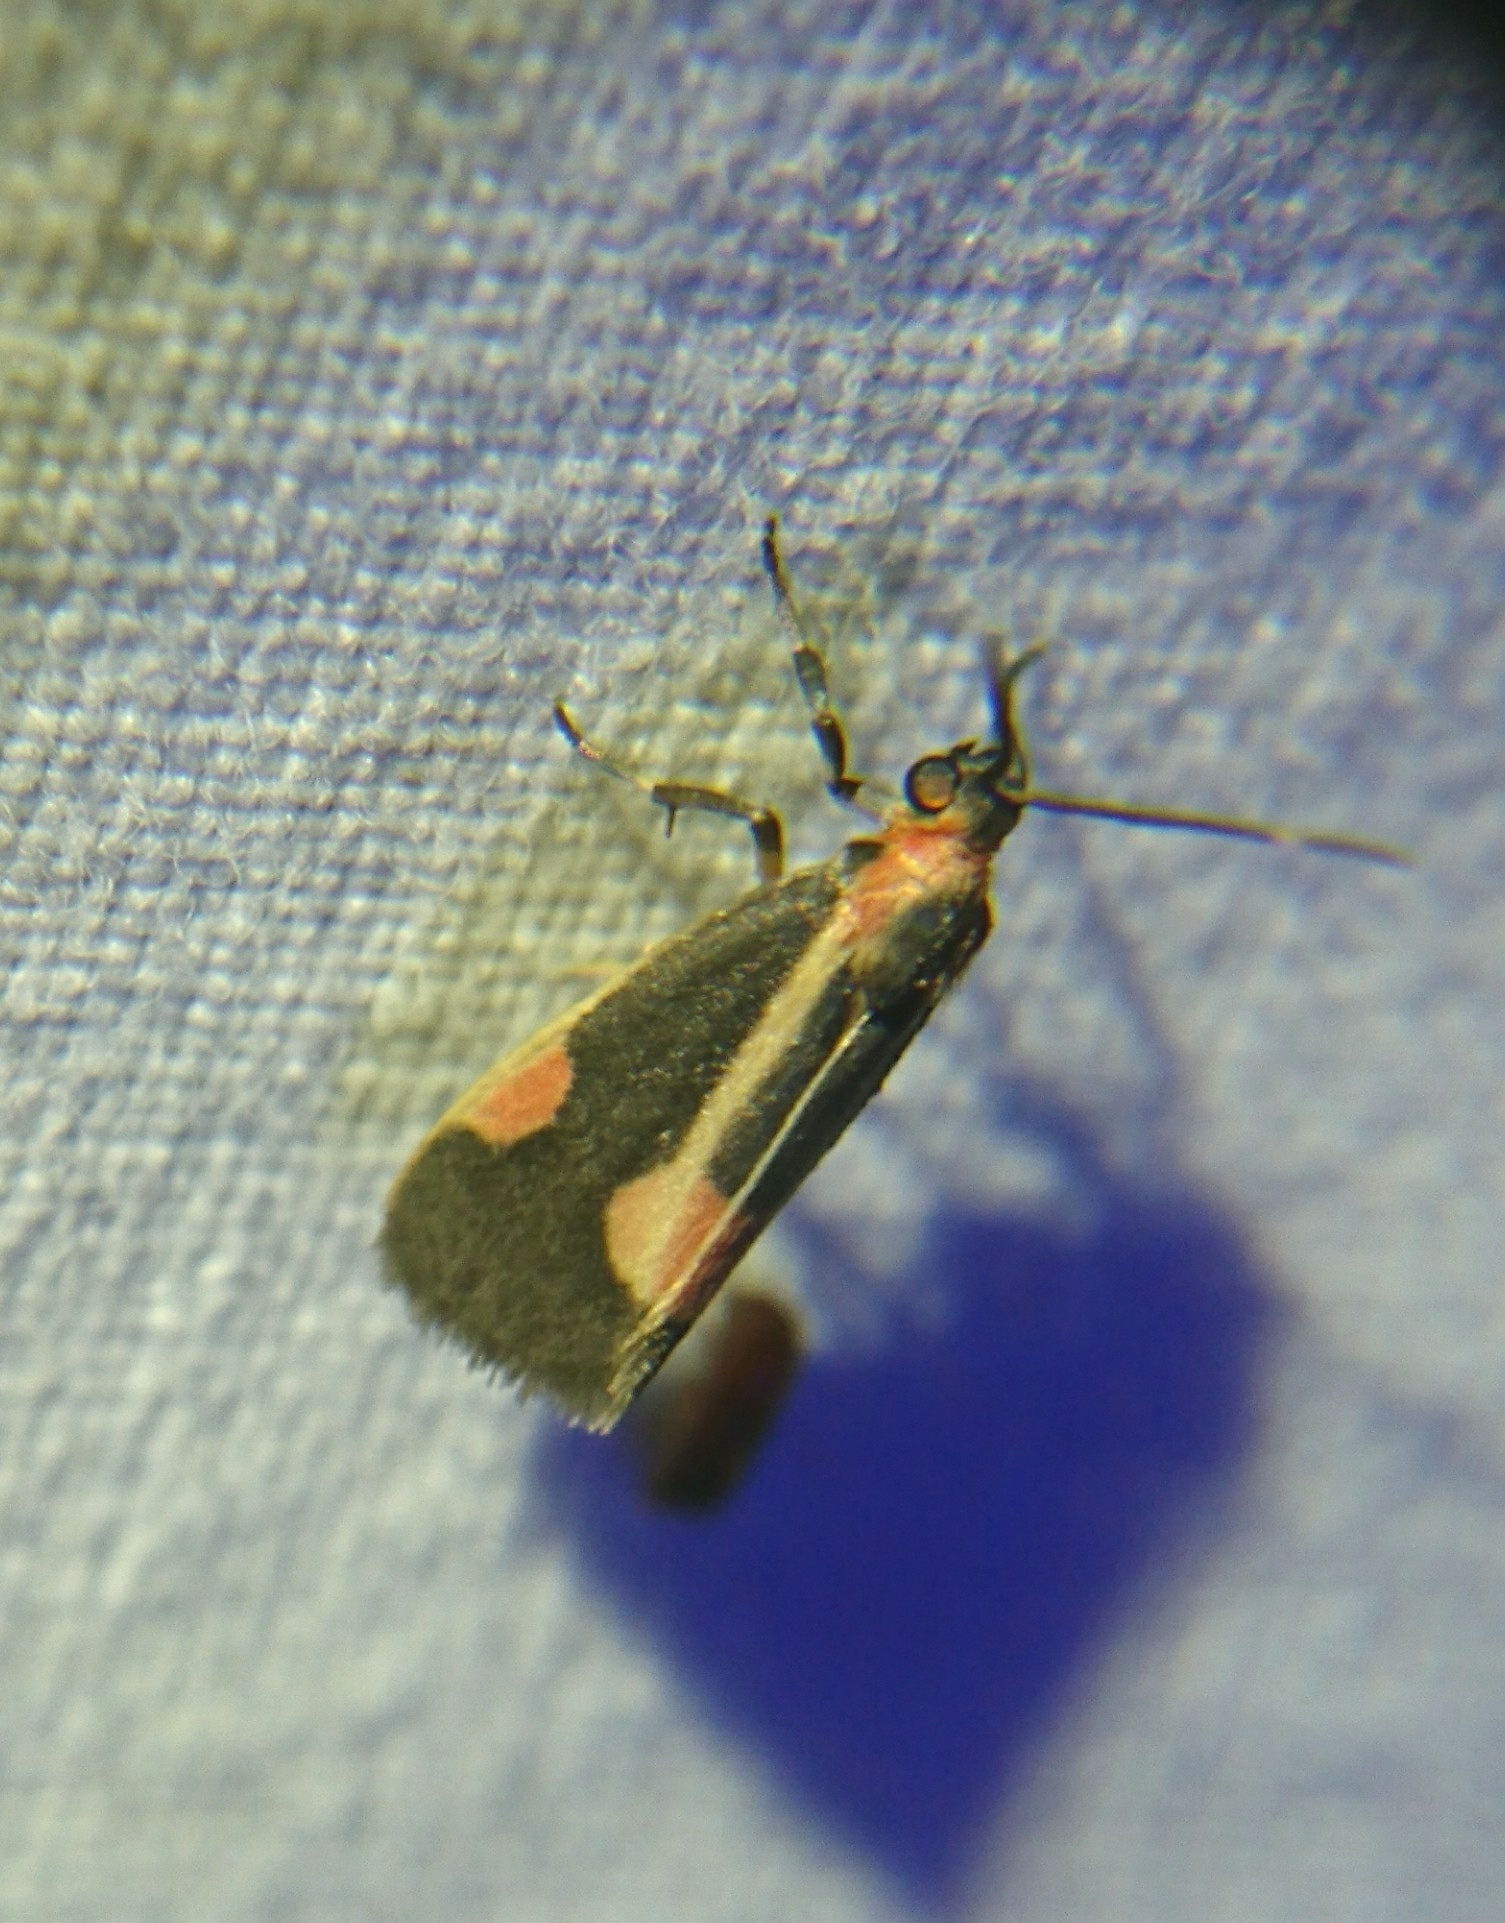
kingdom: Animalia
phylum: Arthropoda
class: Insecta
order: Lepidoptera
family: Erebidae
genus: Cisthene
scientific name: Cisthene packardii
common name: Packard's lichen moth
